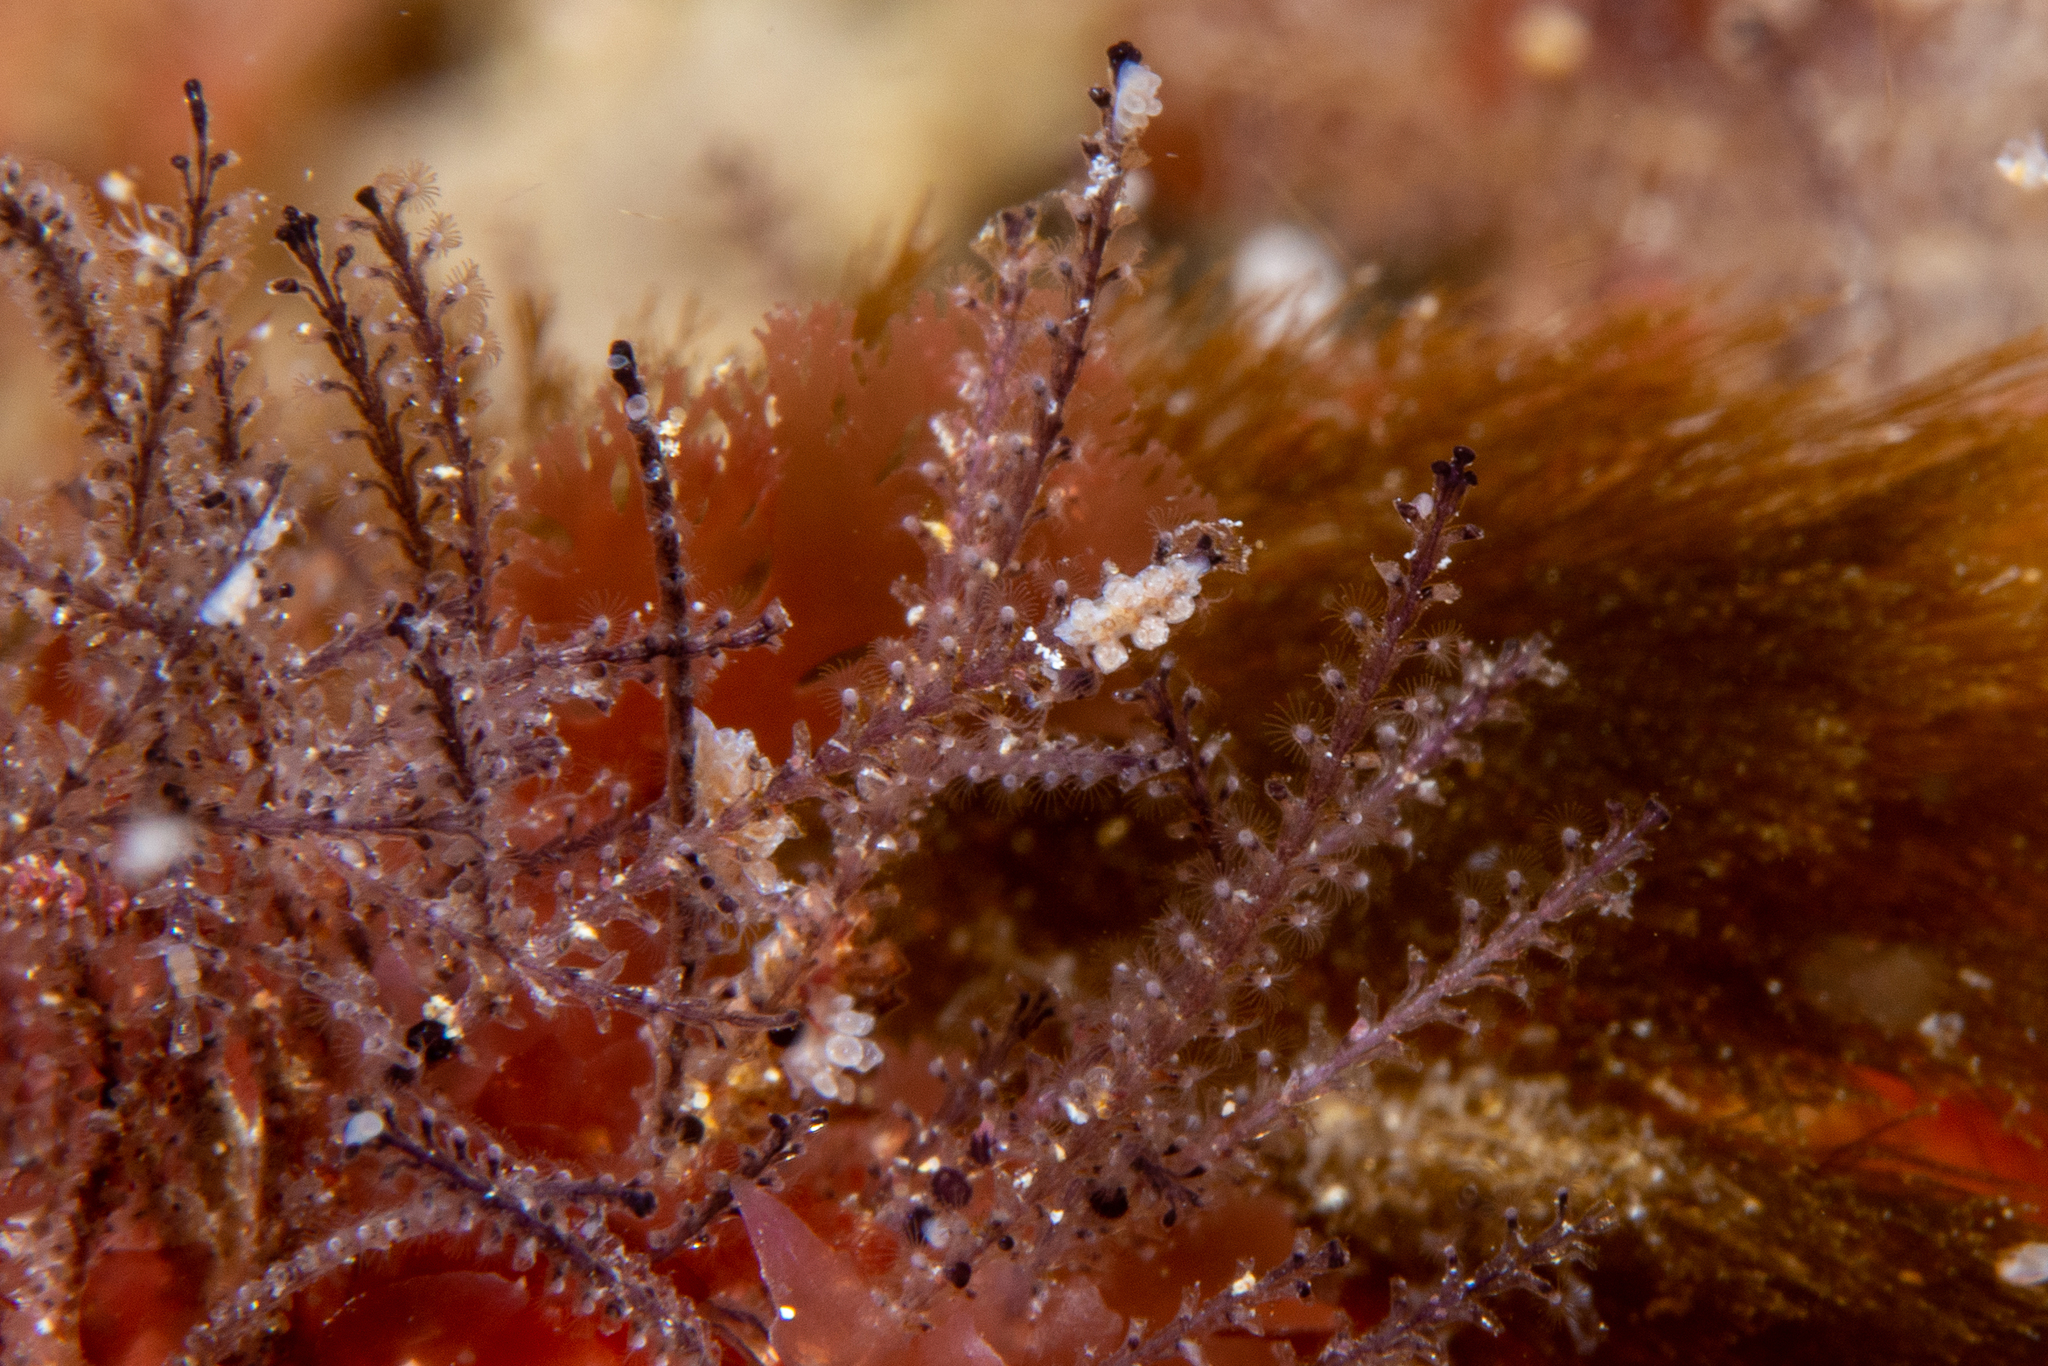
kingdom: Animalia
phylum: Mollusca
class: Gastropoda
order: Nudibranchia
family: Dotidae
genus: Doto
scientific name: Doto pita
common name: Pita doto
